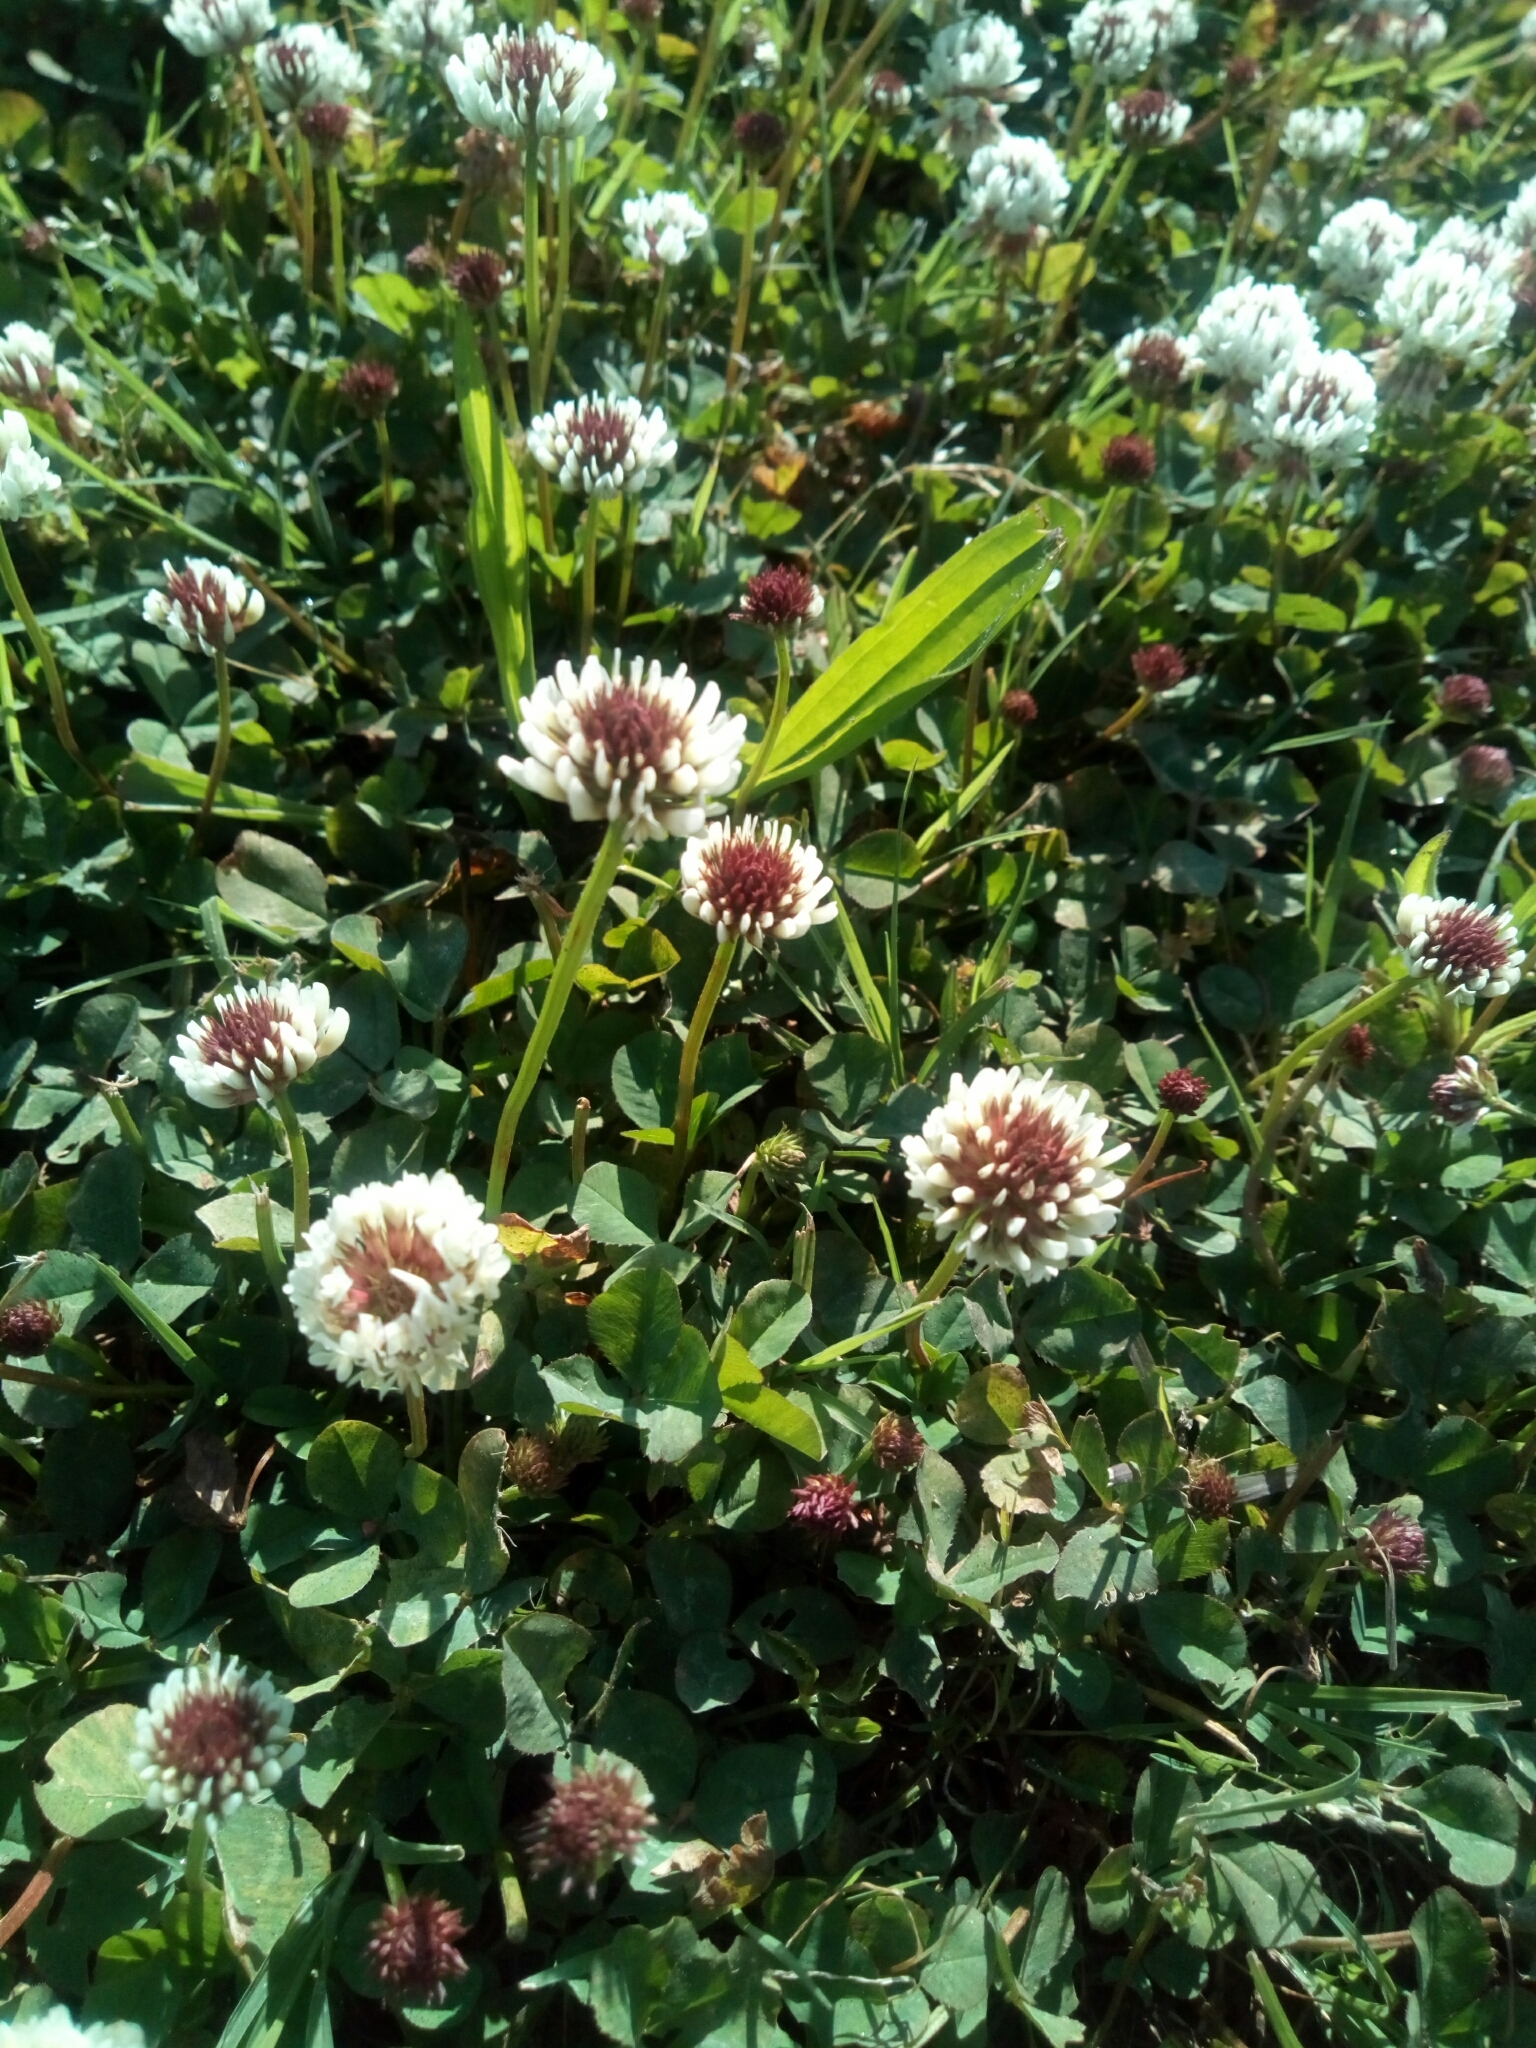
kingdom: Plantae
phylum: Tracheophyta
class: Magnoliopsida
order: Fabales
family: Fabaceae
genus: Trifolium
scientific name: Trifolium repens
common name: White clover
